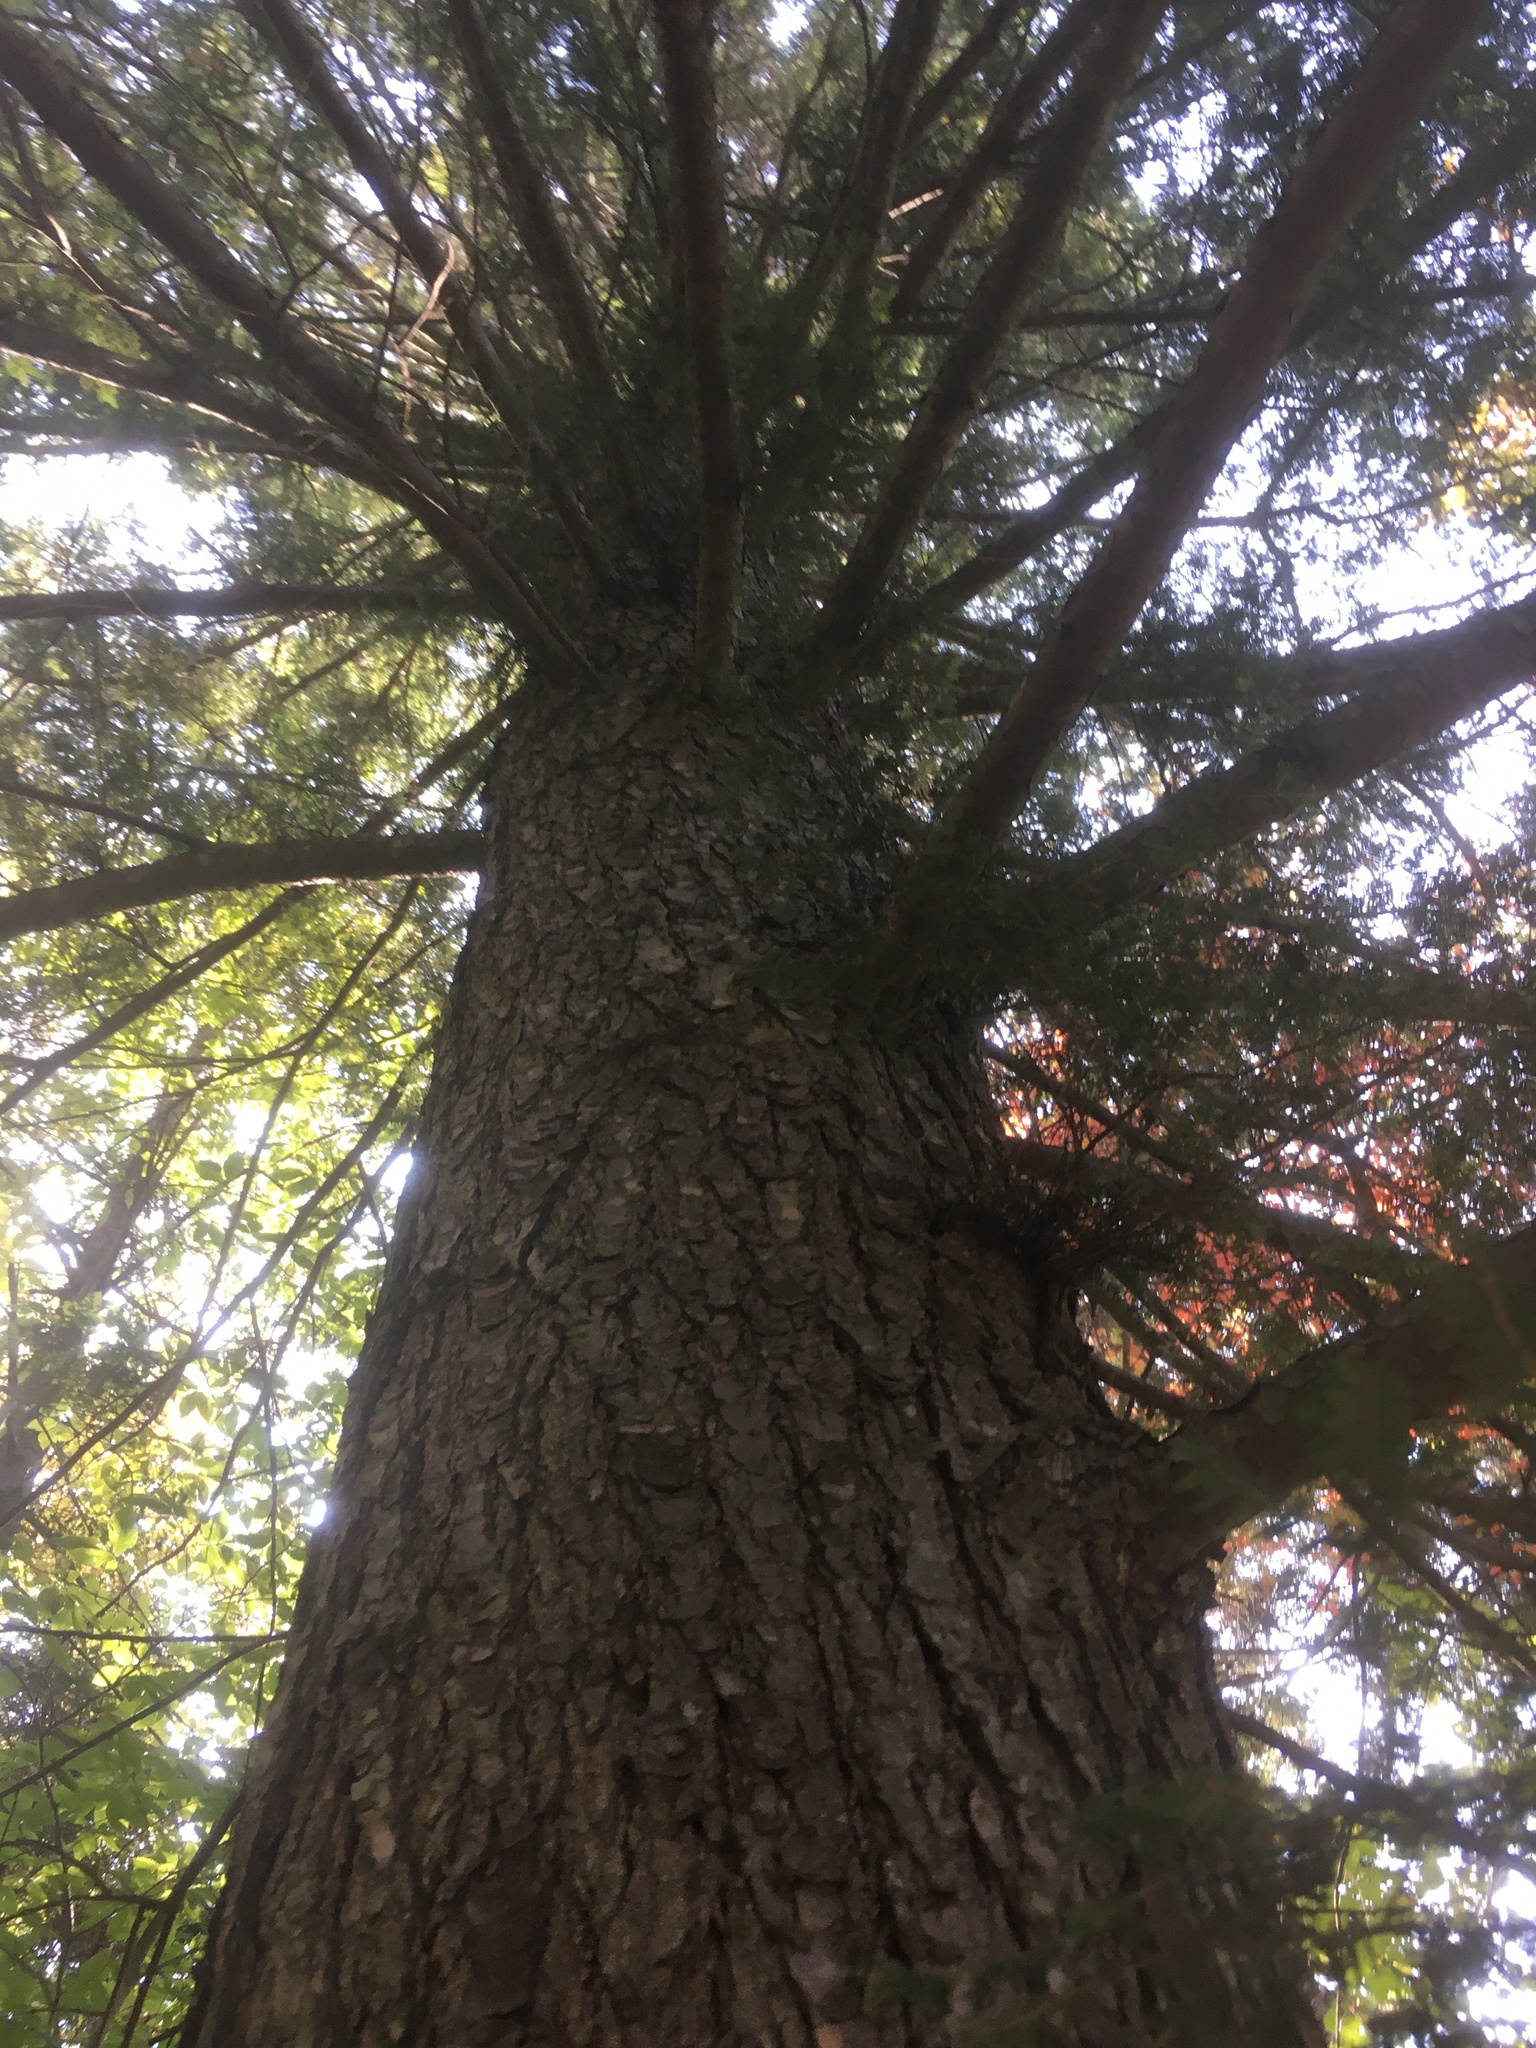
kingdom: Plantae
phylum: Tracheophyta
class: Pinopsida
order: Pinales
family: Pinaceae
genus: Tsuga
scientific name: Tsuga canadensis
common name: Eastern hemlock
